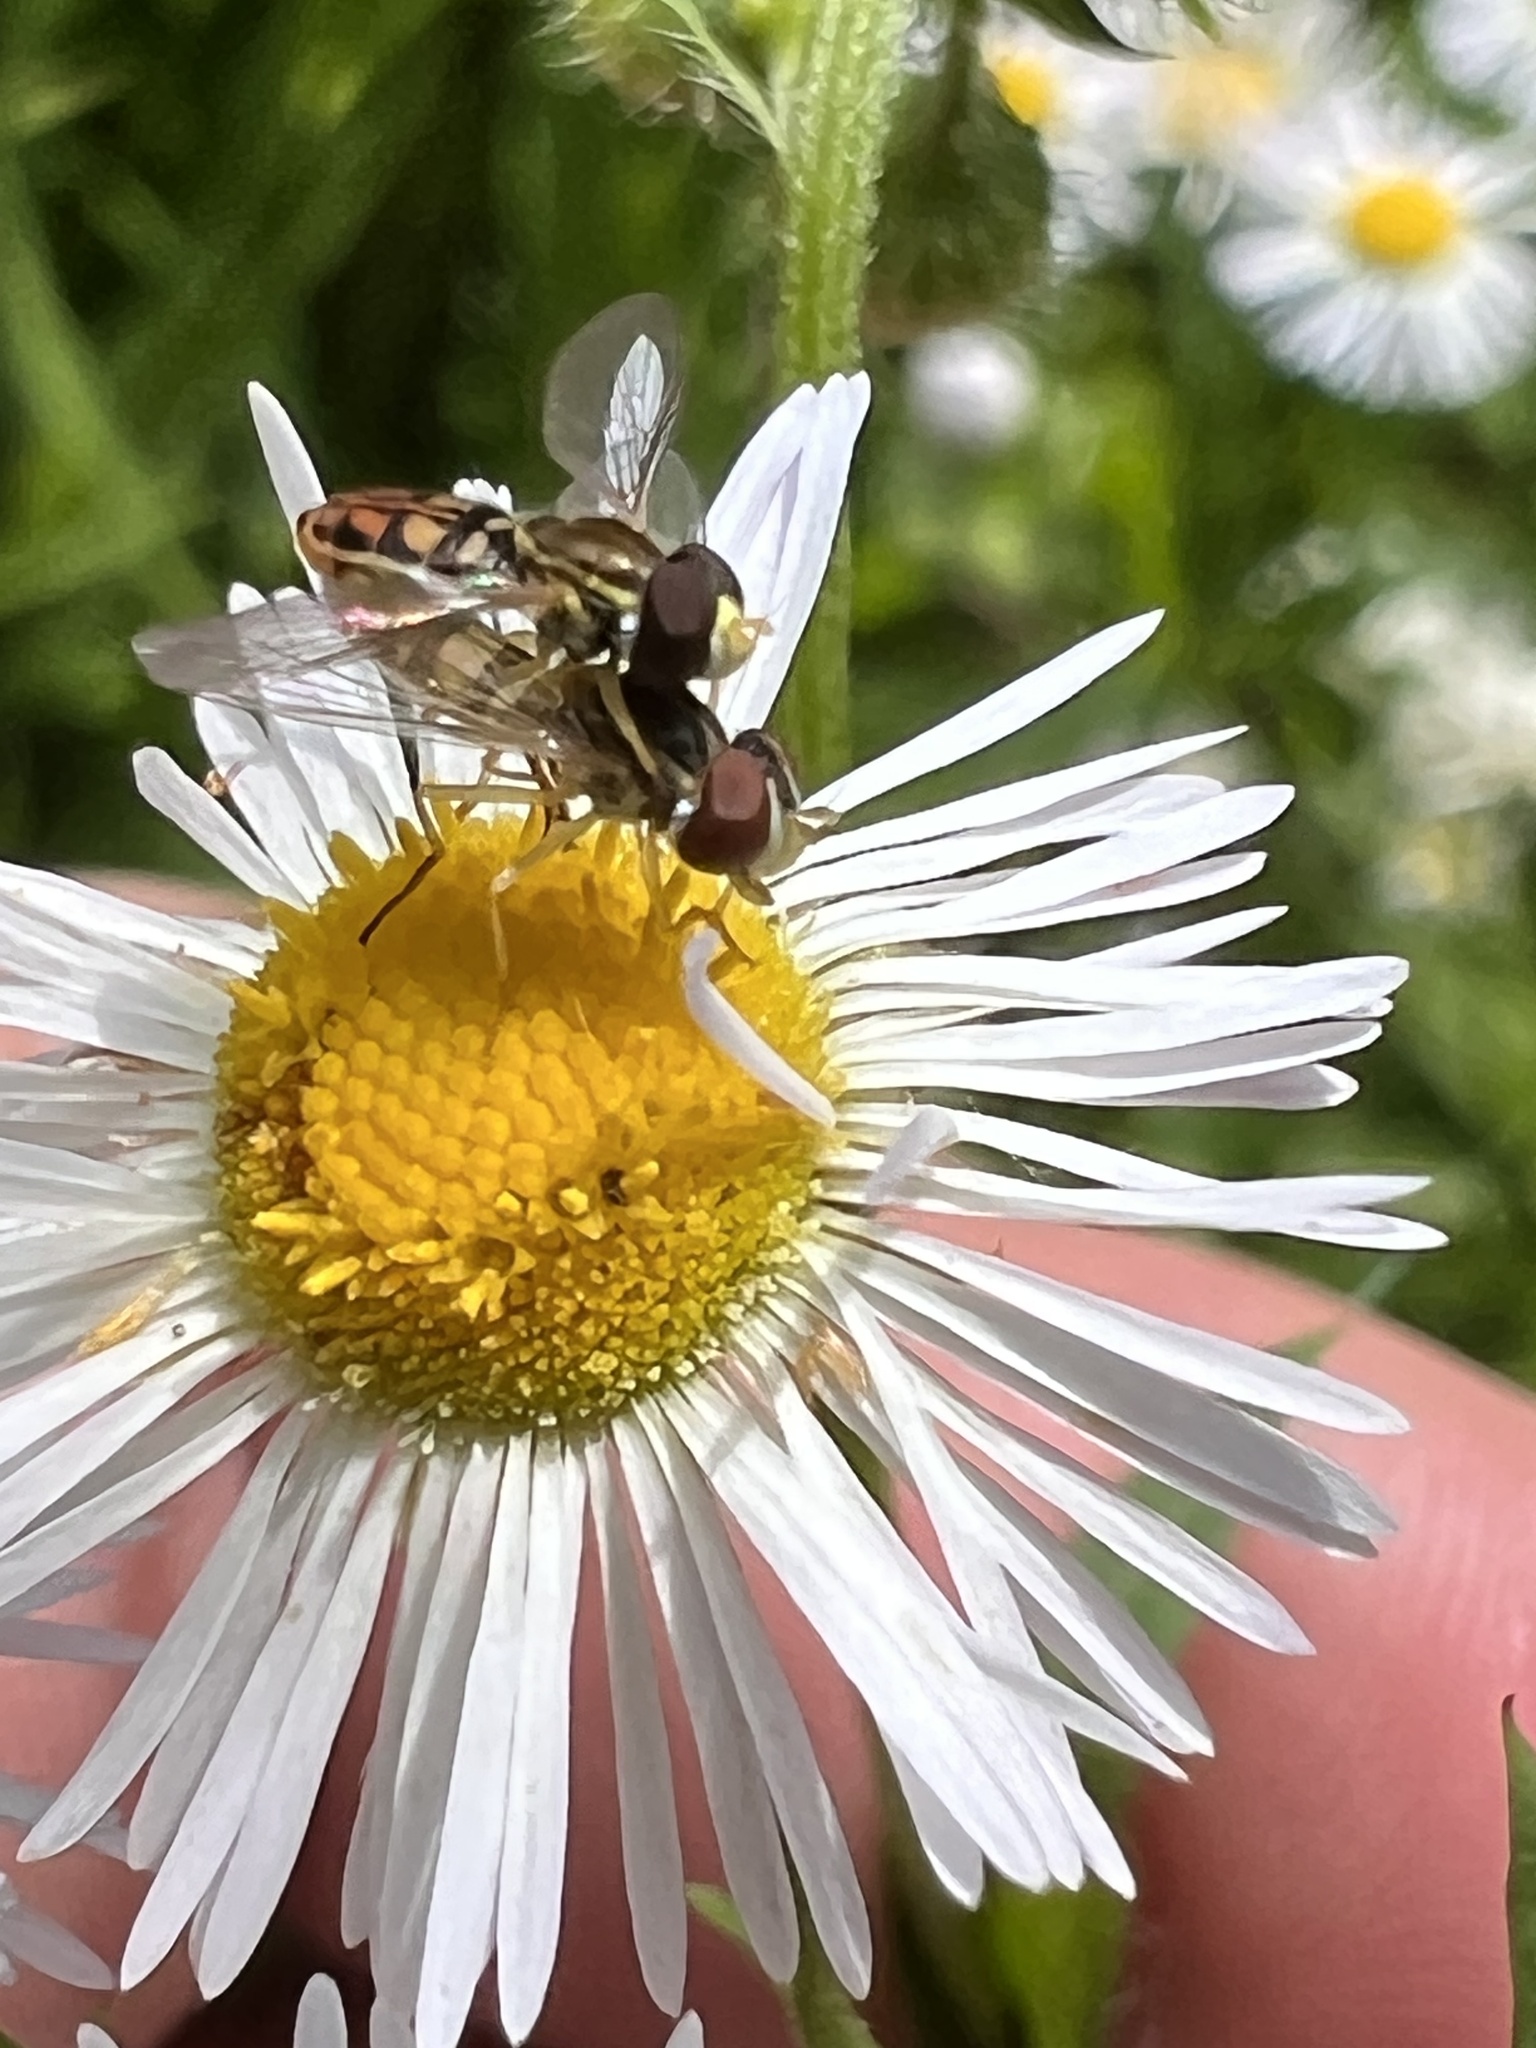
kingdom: Animalia
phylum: Arthropoda
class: Insecta
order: Diptera
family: Syrphidae
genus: Toxomerus
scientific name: Toxomerus marginatus
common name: Syrphid fly
